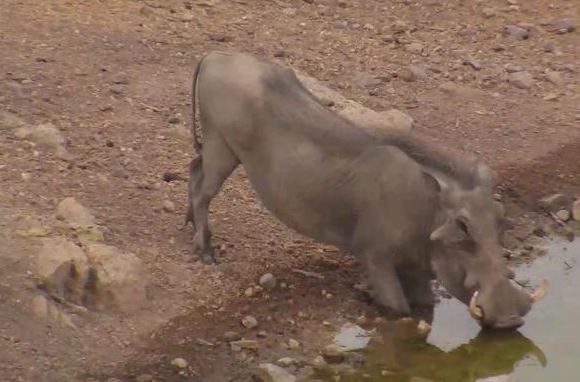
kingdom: Animalia
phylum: Chordata
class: Mammalia
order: Artiodactyla
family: Suidae
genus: Phacochoerus
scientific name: Phacochoerus africanus
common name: Common warthog
